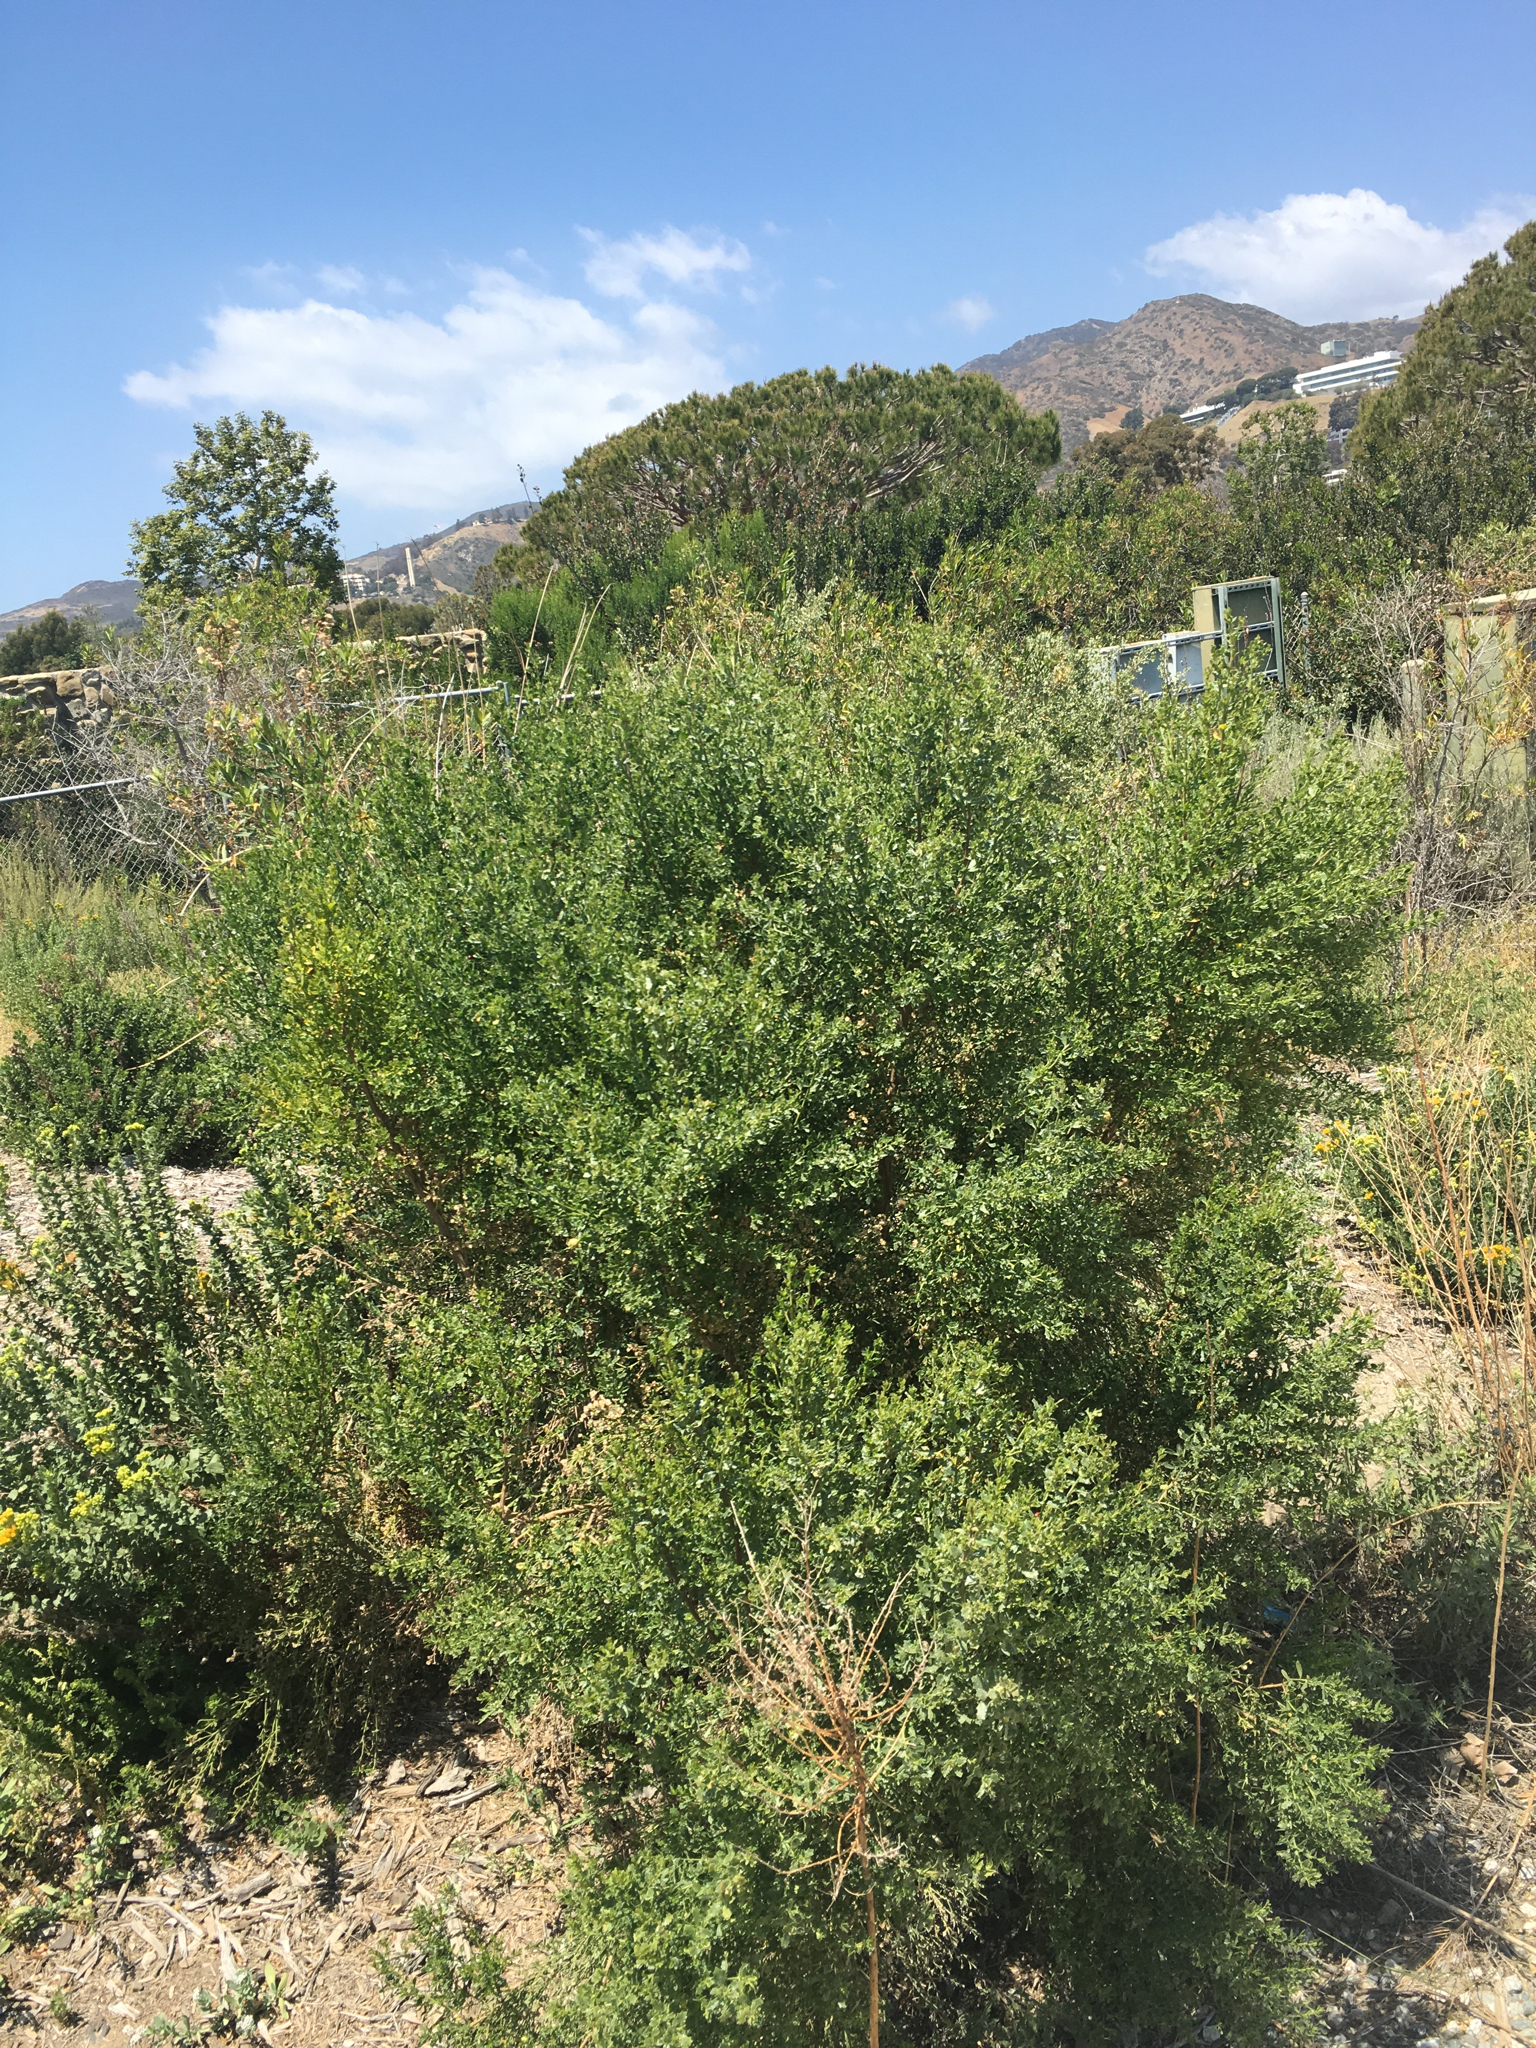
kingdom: Plantae
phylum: Tracheophyta
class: Magnoliopsida
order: Asterales
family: Asteraceae
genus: Baccharis
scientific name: Baccharis pilularis
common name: Coyotebrush
